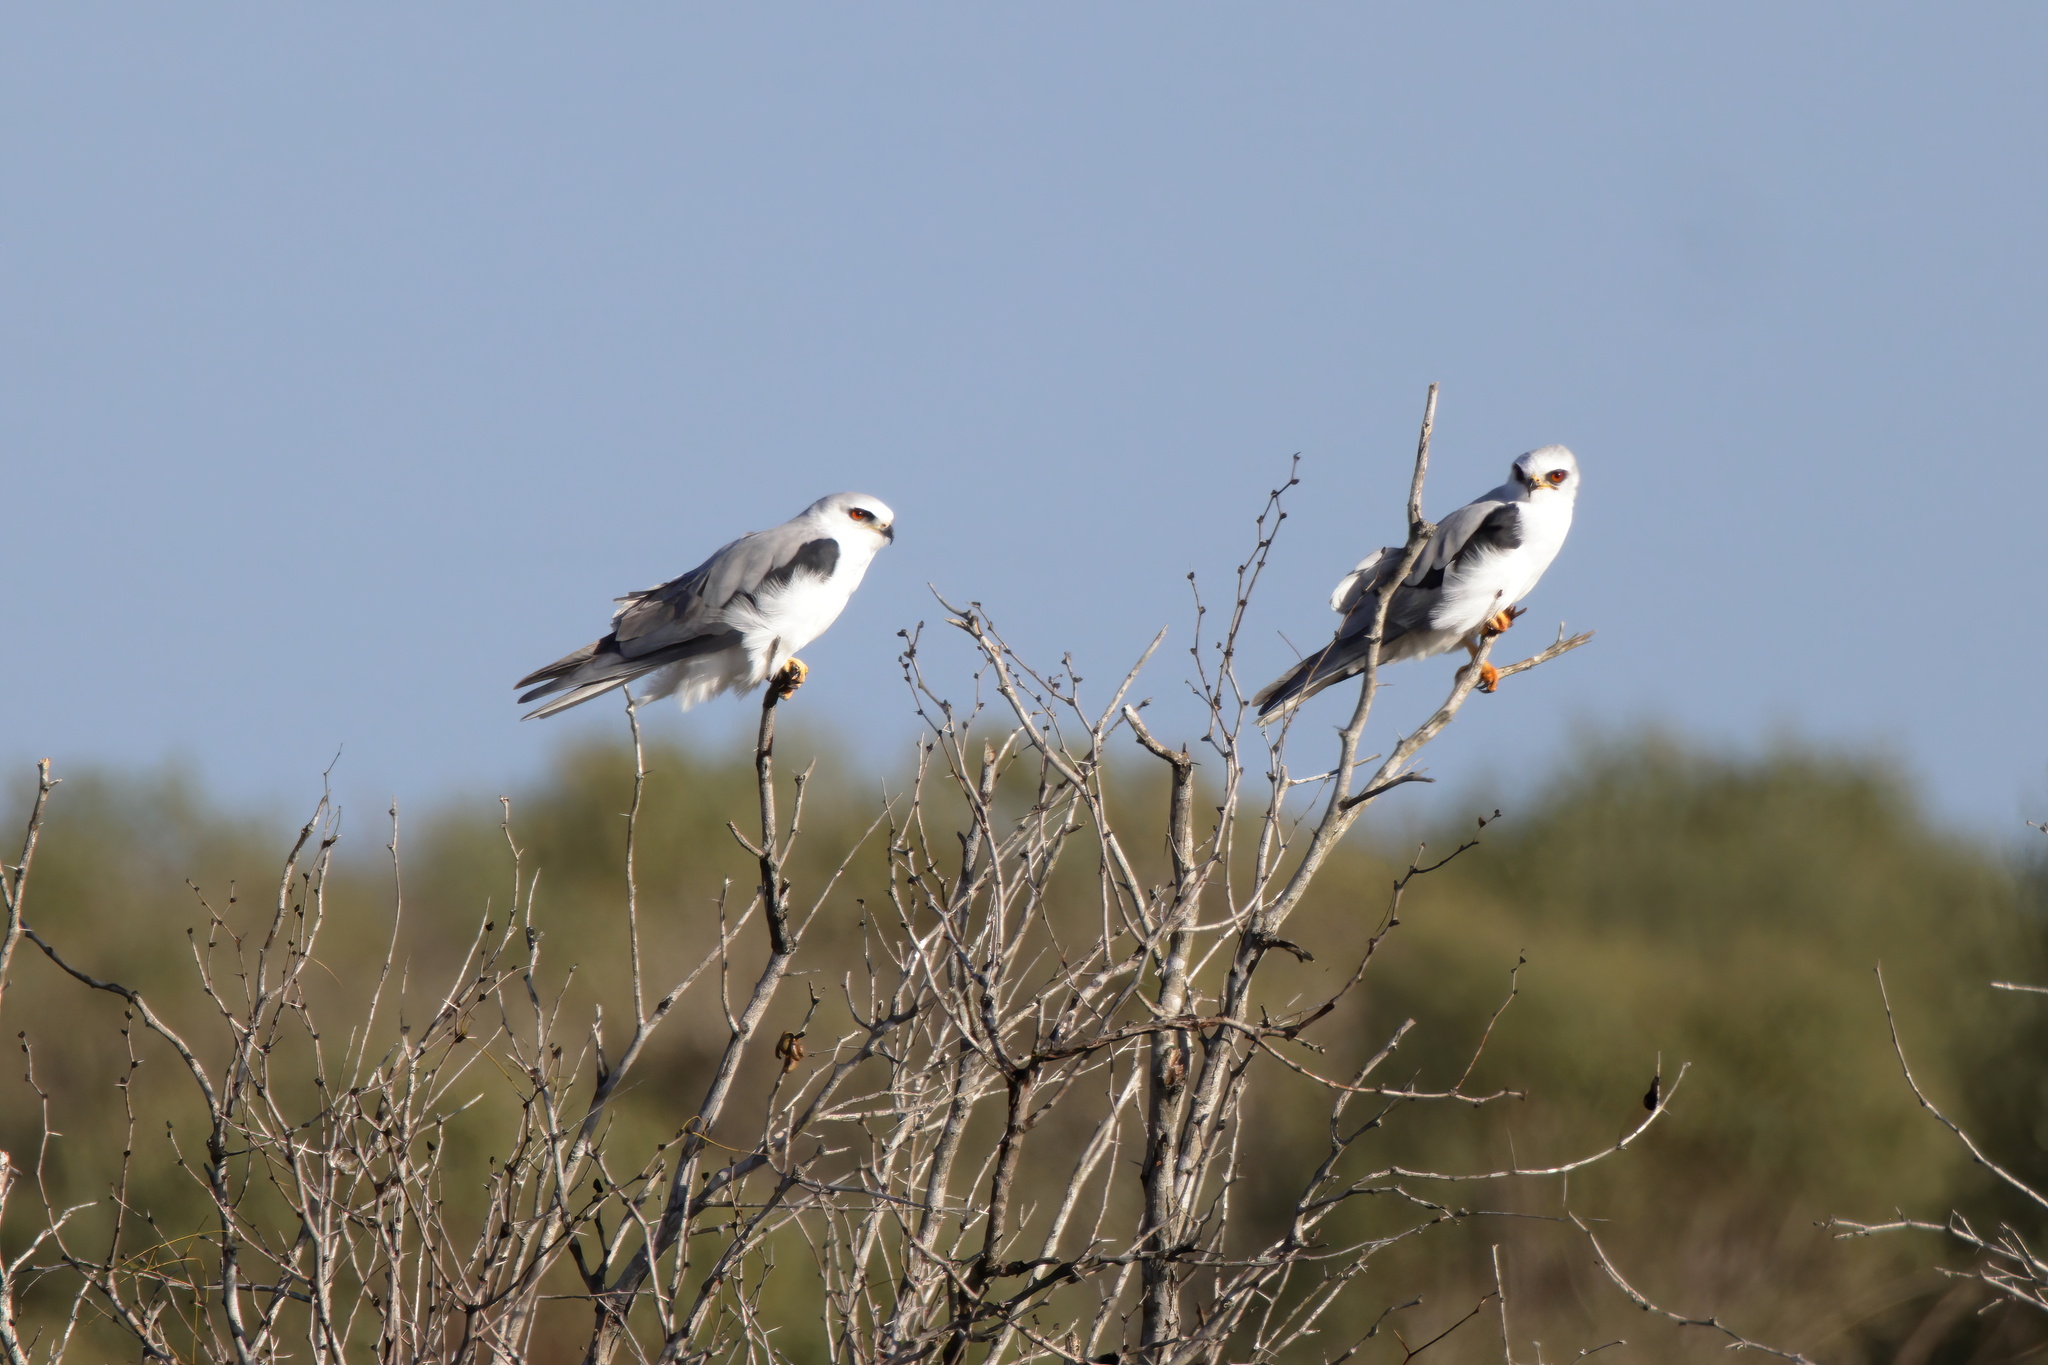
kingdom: Animalia
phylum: Chordata
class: Aves
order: Accipitriformes
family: Accipitridae
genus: Elanus
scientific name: Elanus leucurus
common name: White-tailed kite
